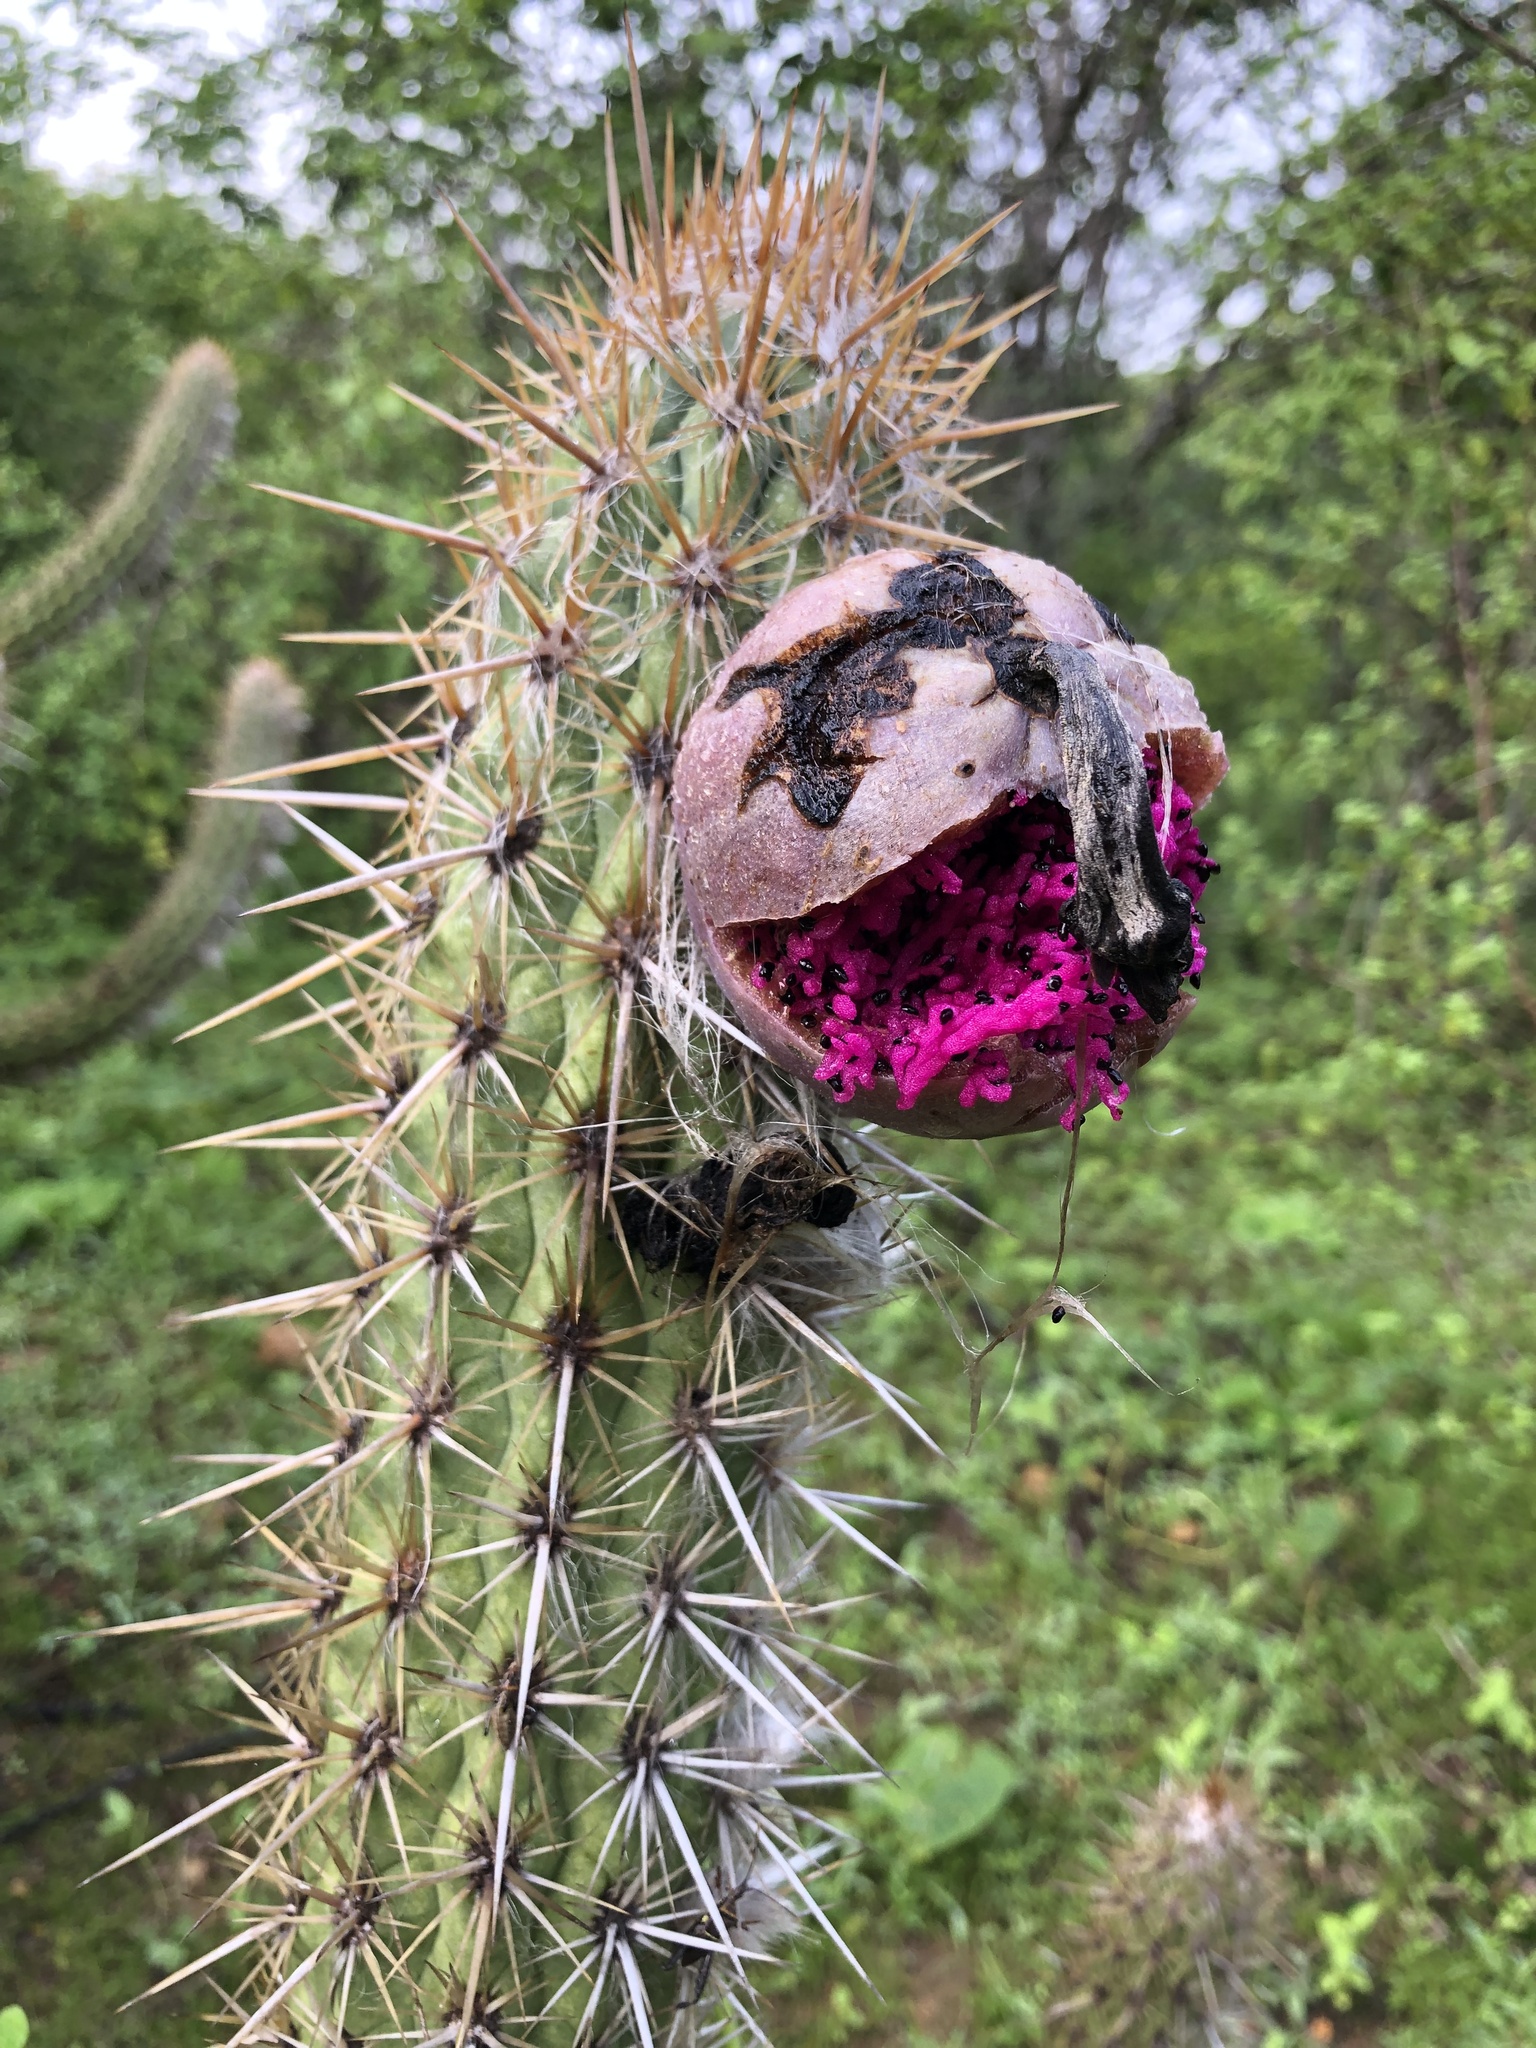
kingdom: Plantae
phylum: Tracheophyta
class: Magnoliopsida
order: Caryophyllales
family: Cactaceae
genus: Xiquexique
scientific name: Xiquexique gounellei
